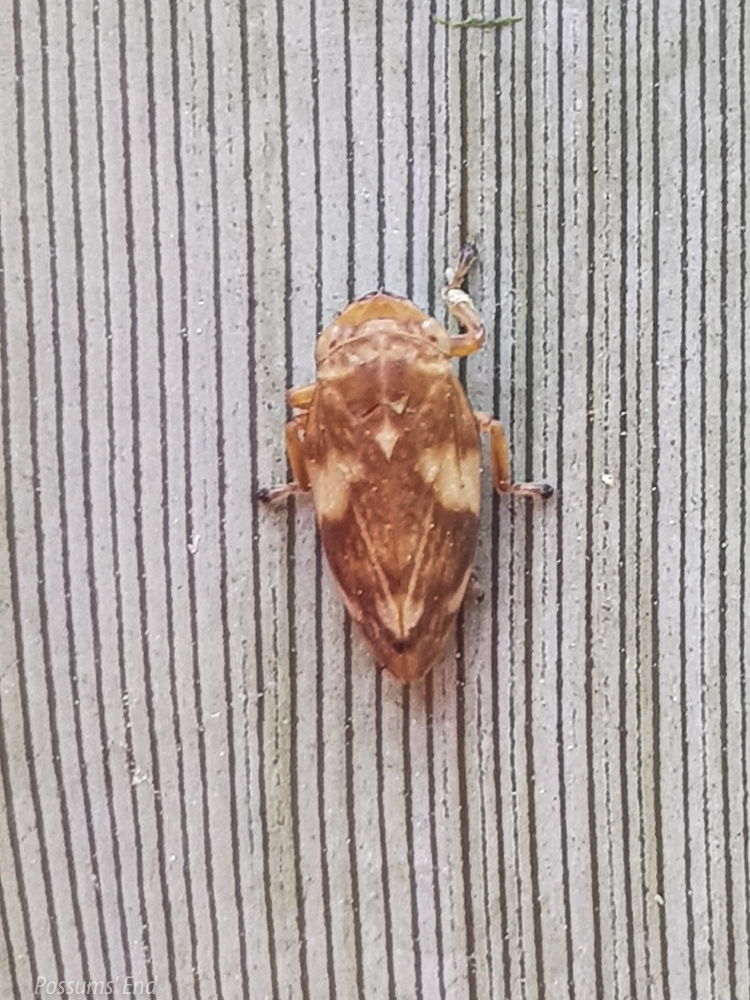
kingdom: Animalia
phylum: Arthropoda
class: Insecta
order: Hemiptera
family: Aphrophoridae
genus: Philaenus
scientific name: Philaenus spumarius
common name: Meadow spittlebug
